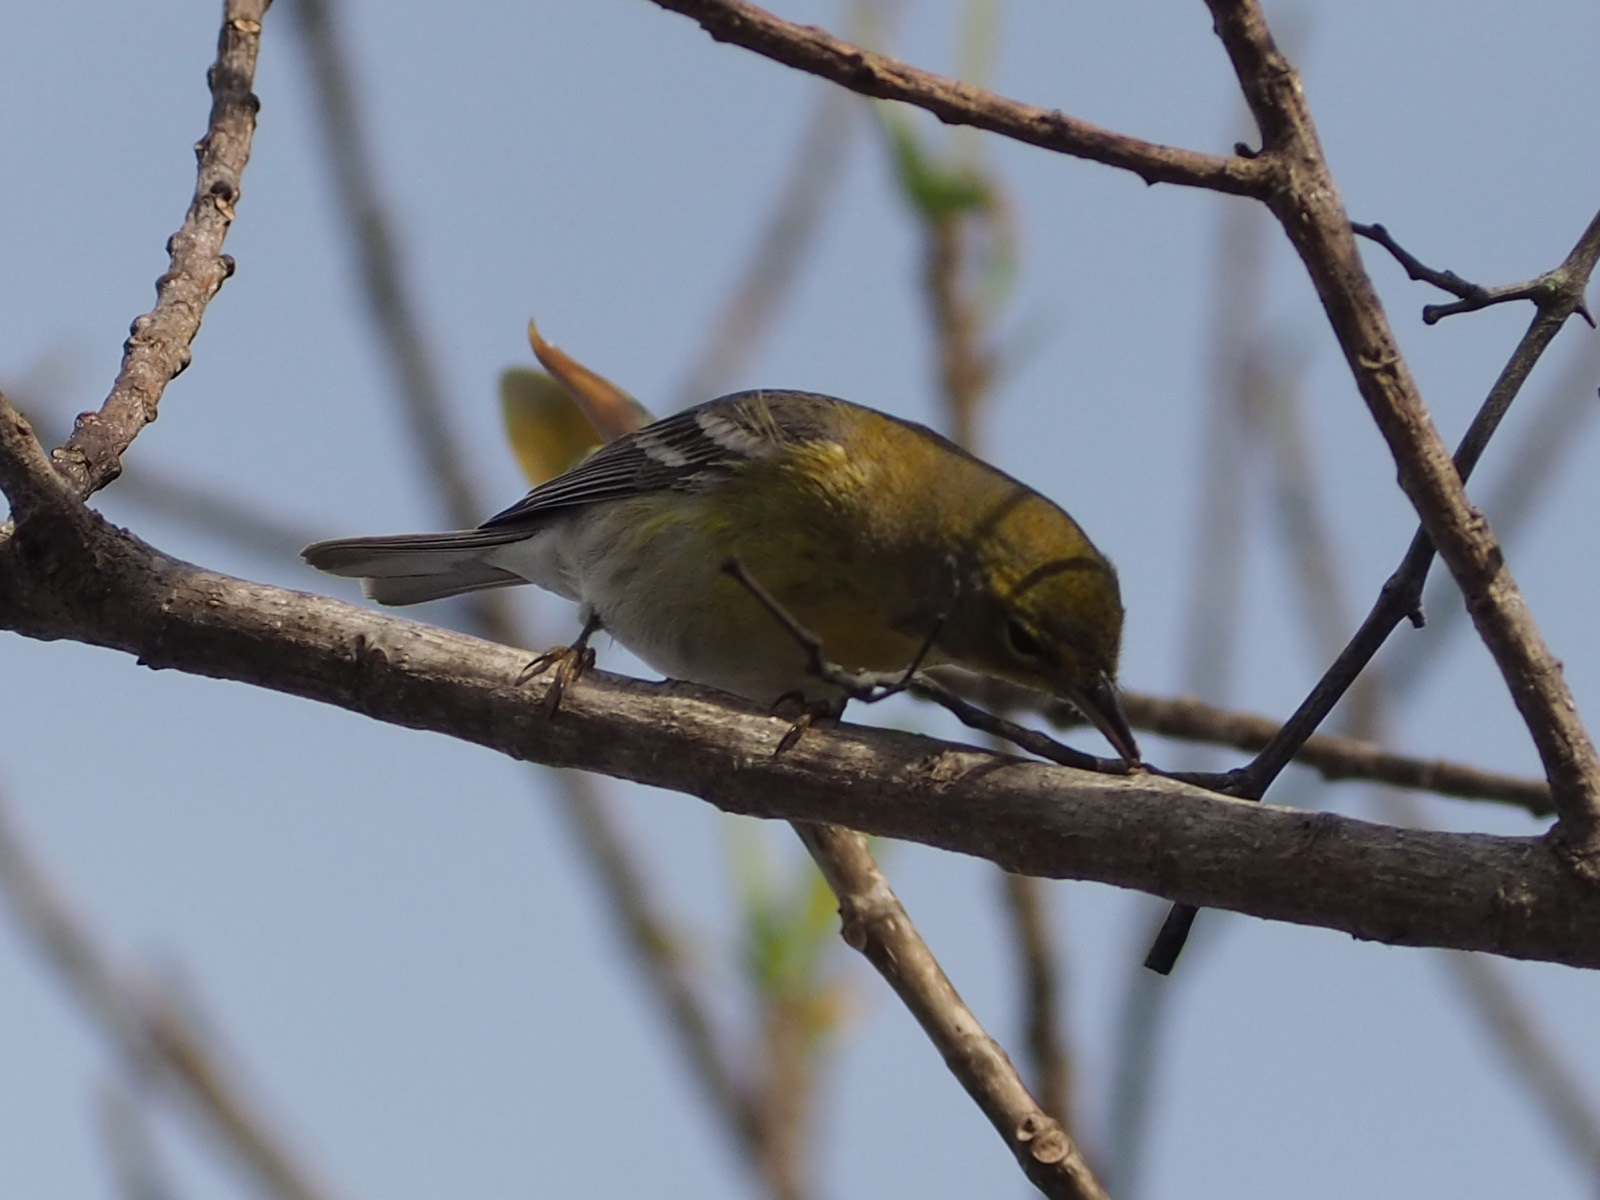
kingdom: Animalia
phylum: Chordata
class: Aves
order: Passeriformes
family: Parulidae
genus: Setophaga
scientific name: Setophaga pinus
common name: Pine warbler
